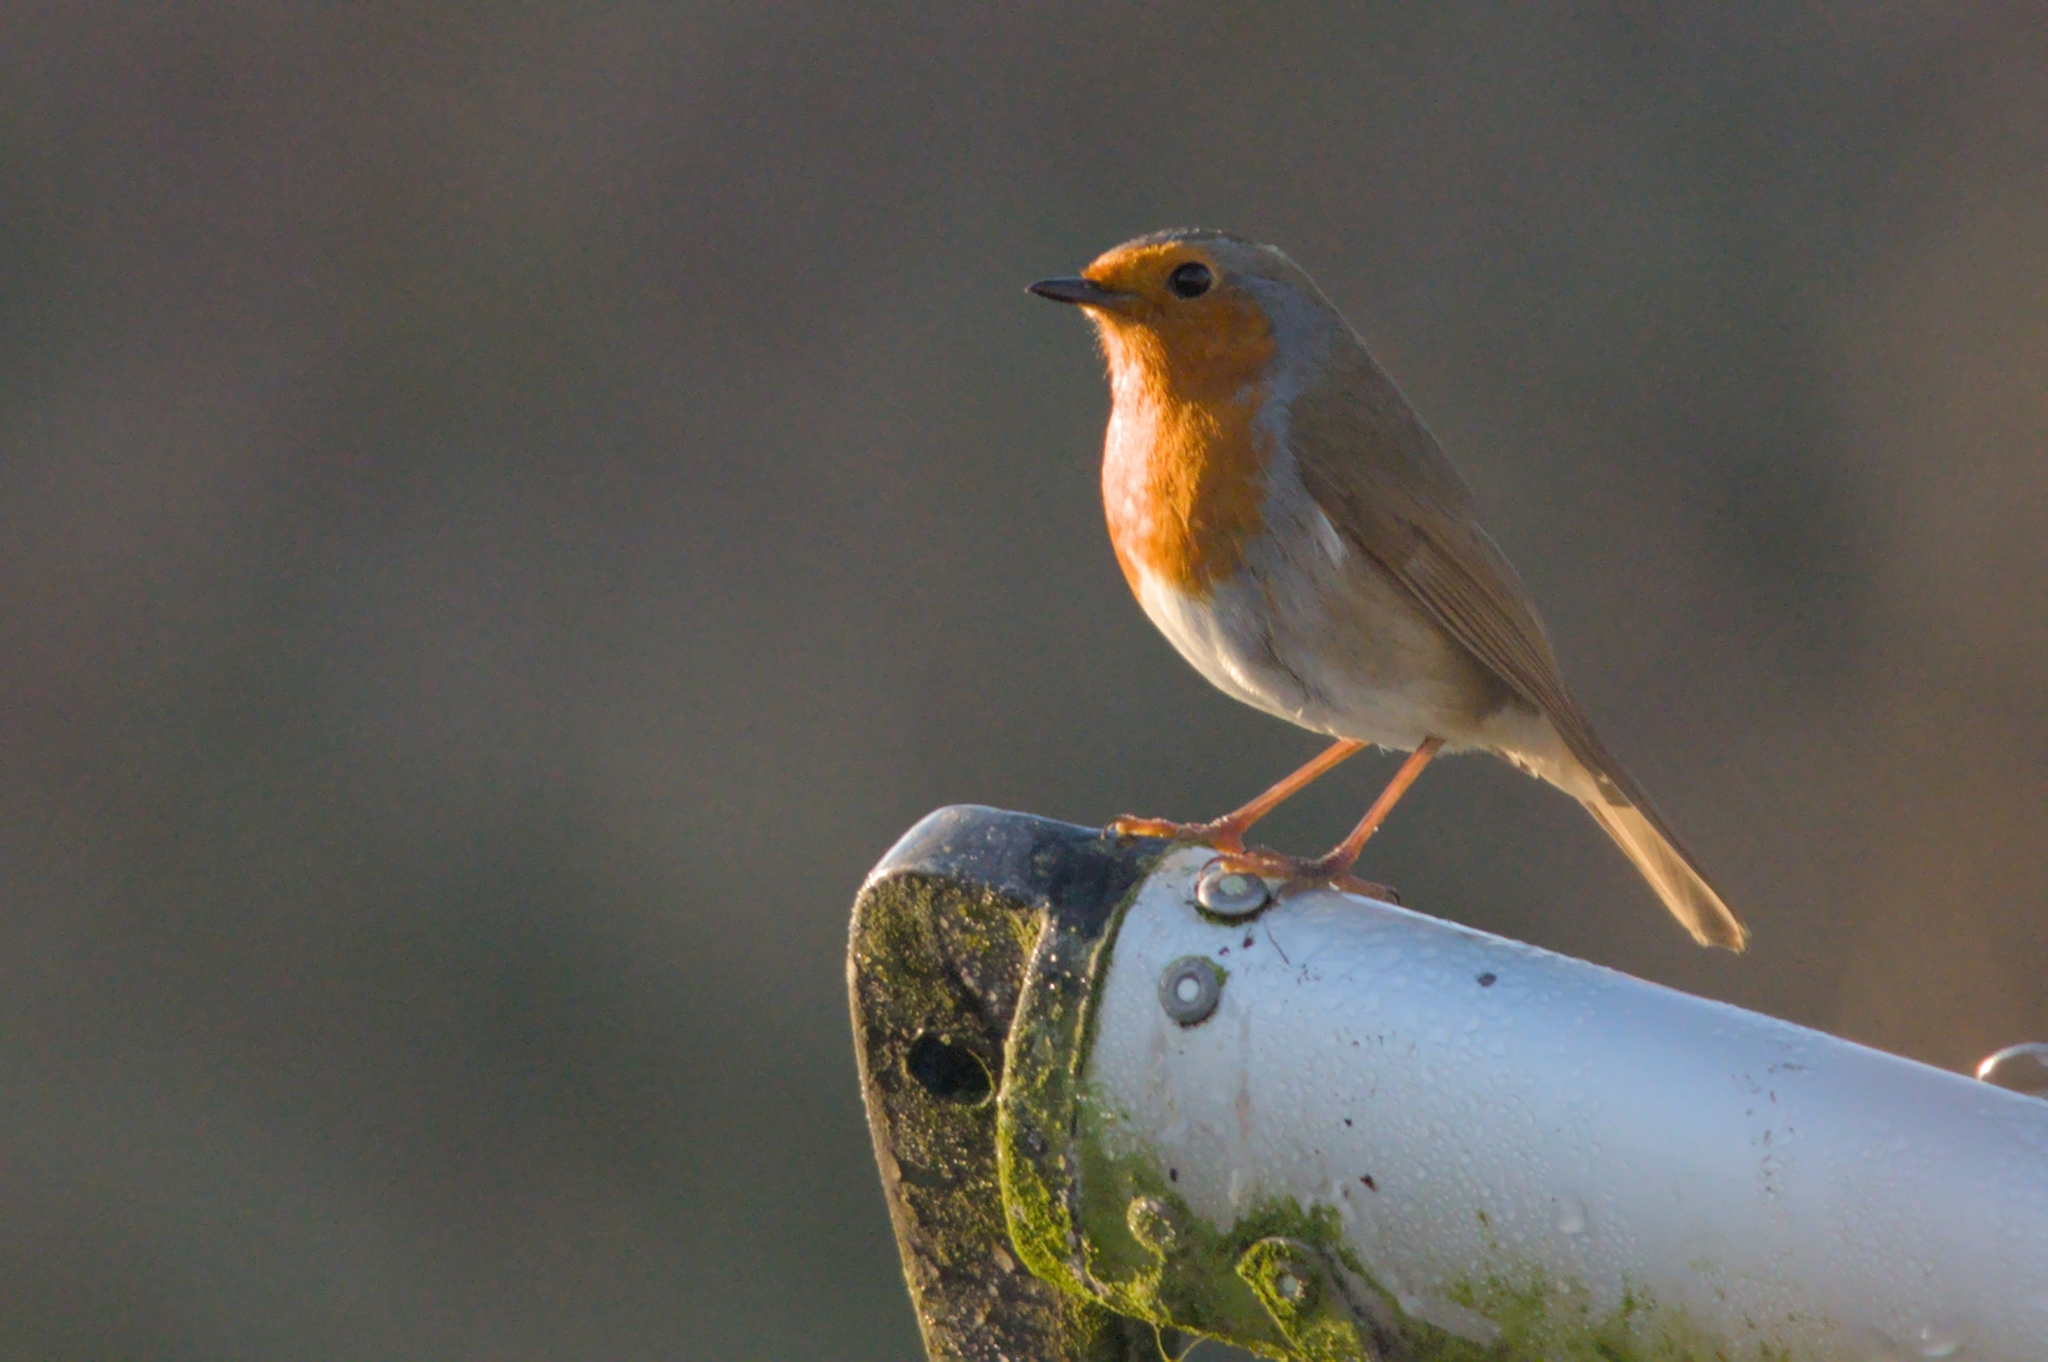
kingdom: Animalia
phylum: Chordata
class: Aves
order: Passeriformes
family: Muscicapidae
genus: Erithacus
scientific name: Erithacus rubecula
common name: European robin
